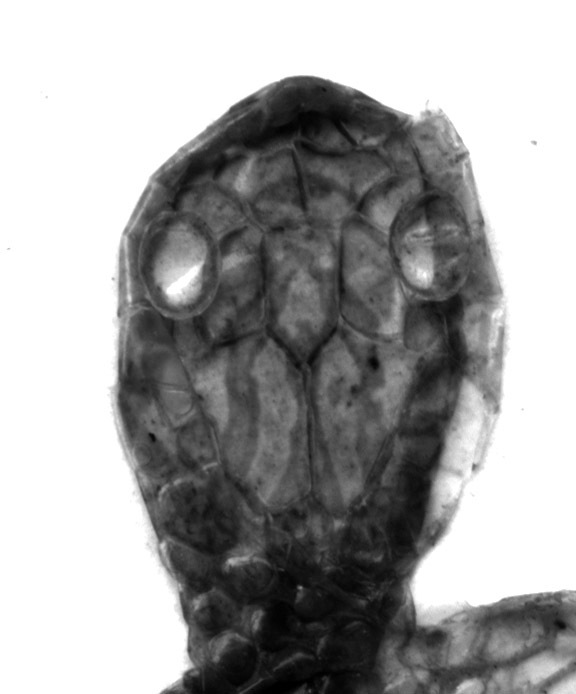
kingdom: Animalia
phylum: Chordata
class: Squamata
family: Colubridae
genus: Oocatochus
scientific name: Oocatochus rufodorsatus
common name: Frog-eating rat snake
